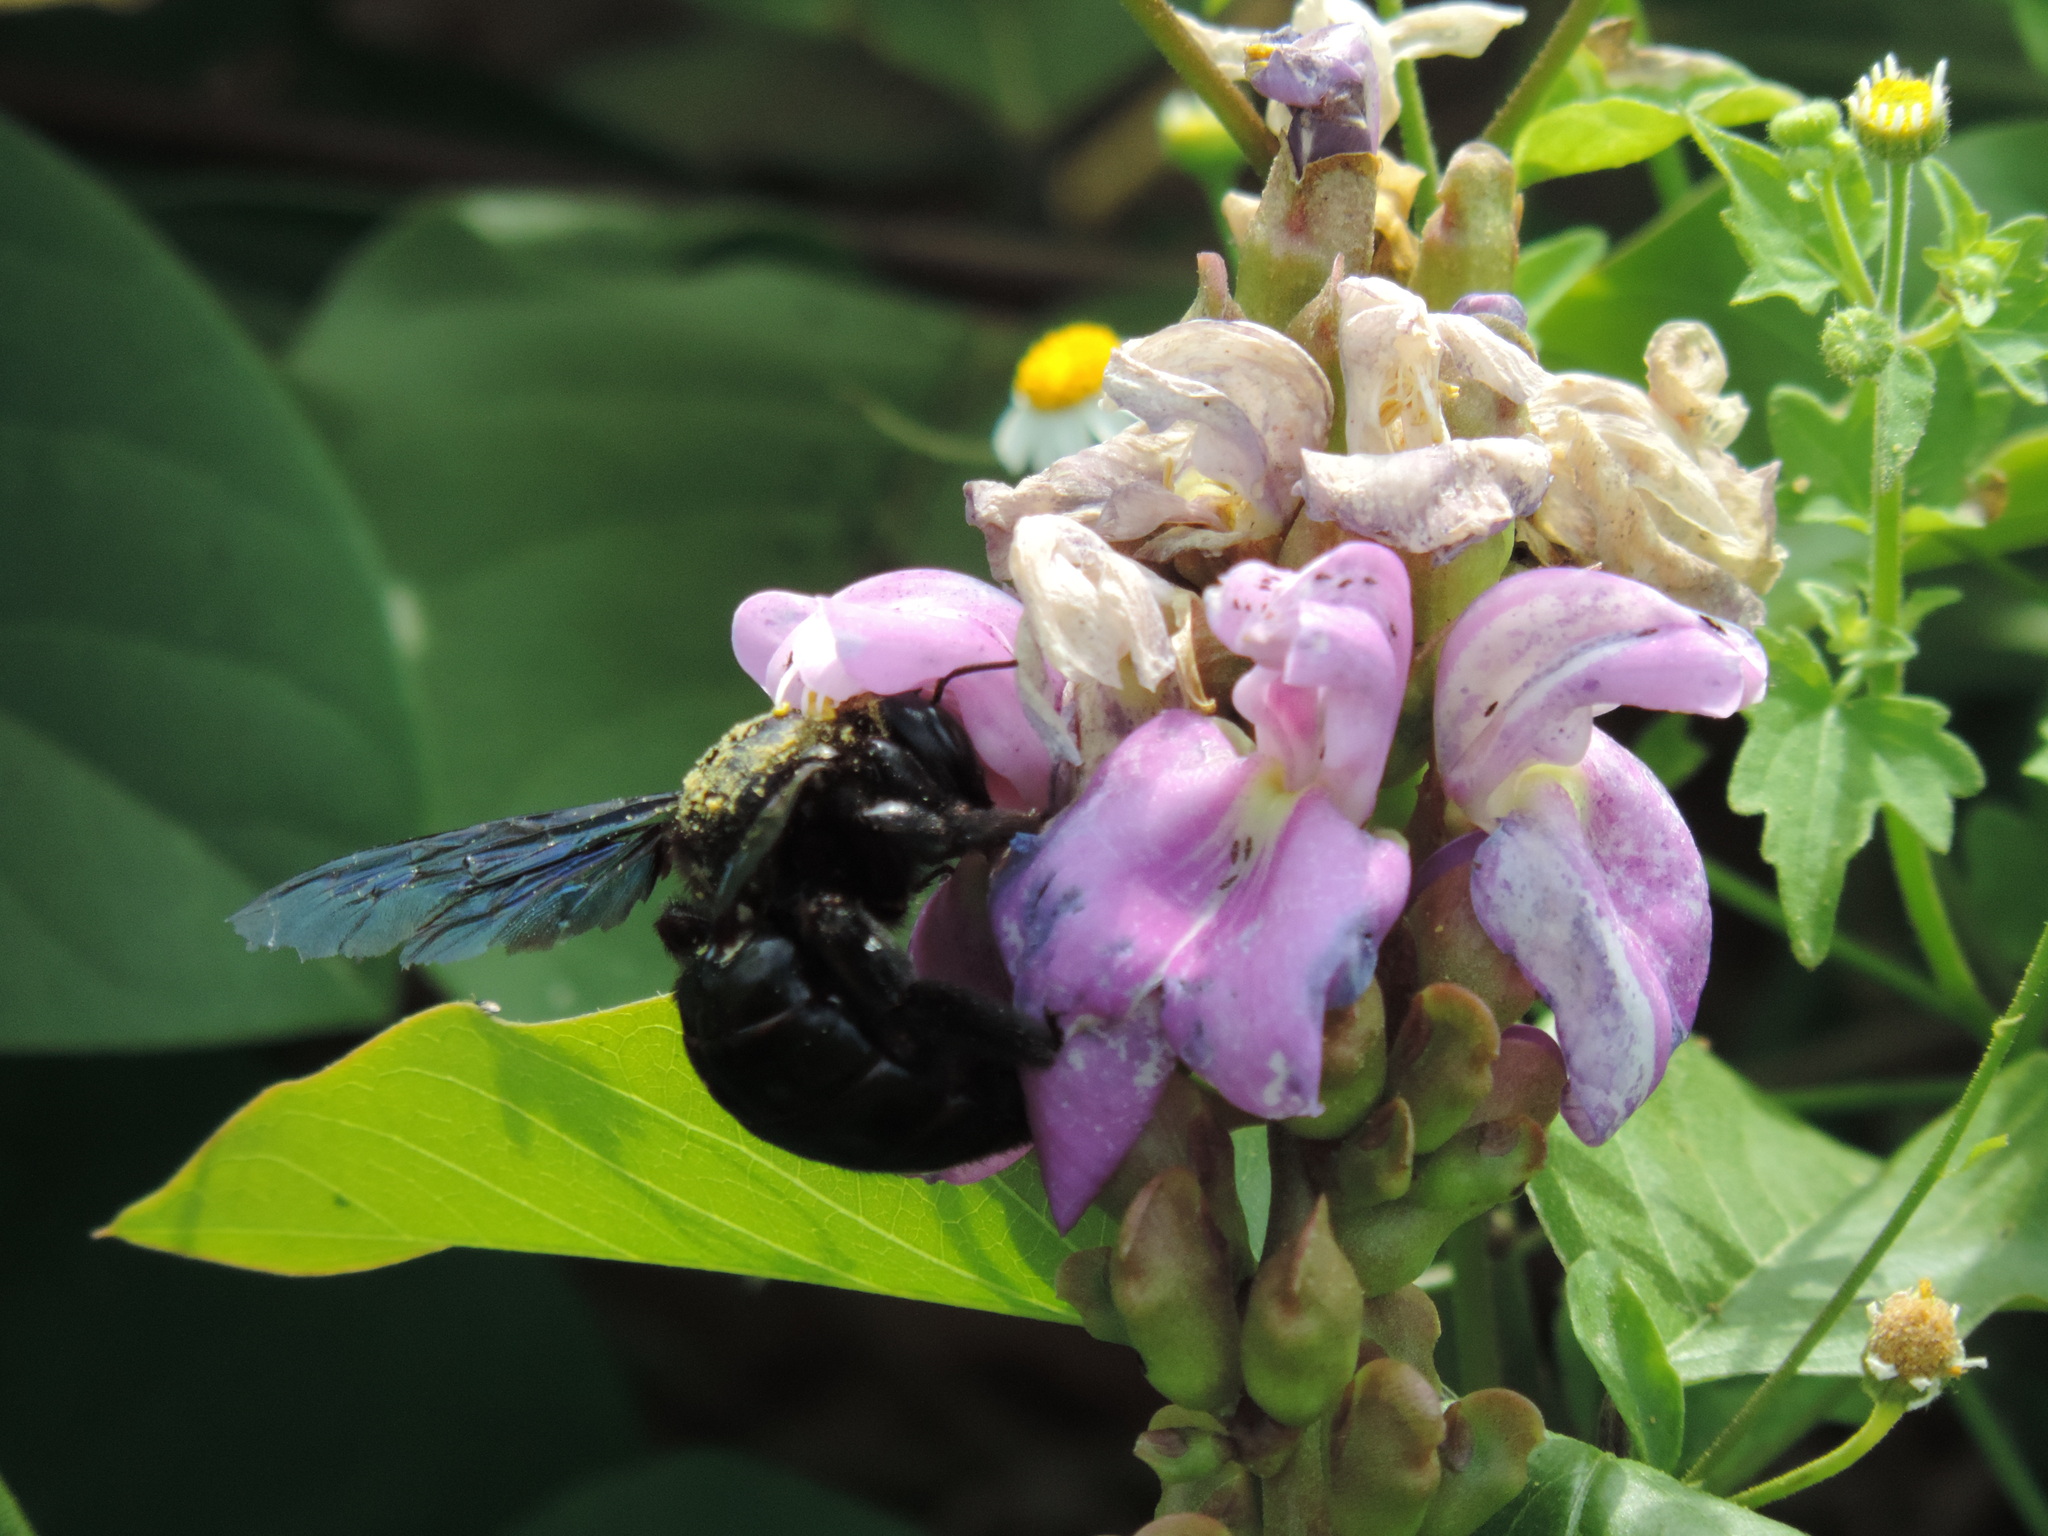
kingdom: Animalia
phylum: Arthropoda
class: Insecta
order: Hymenoptera
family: Apidae
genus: Xylocopa
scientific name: Xylocopa fimbriata
